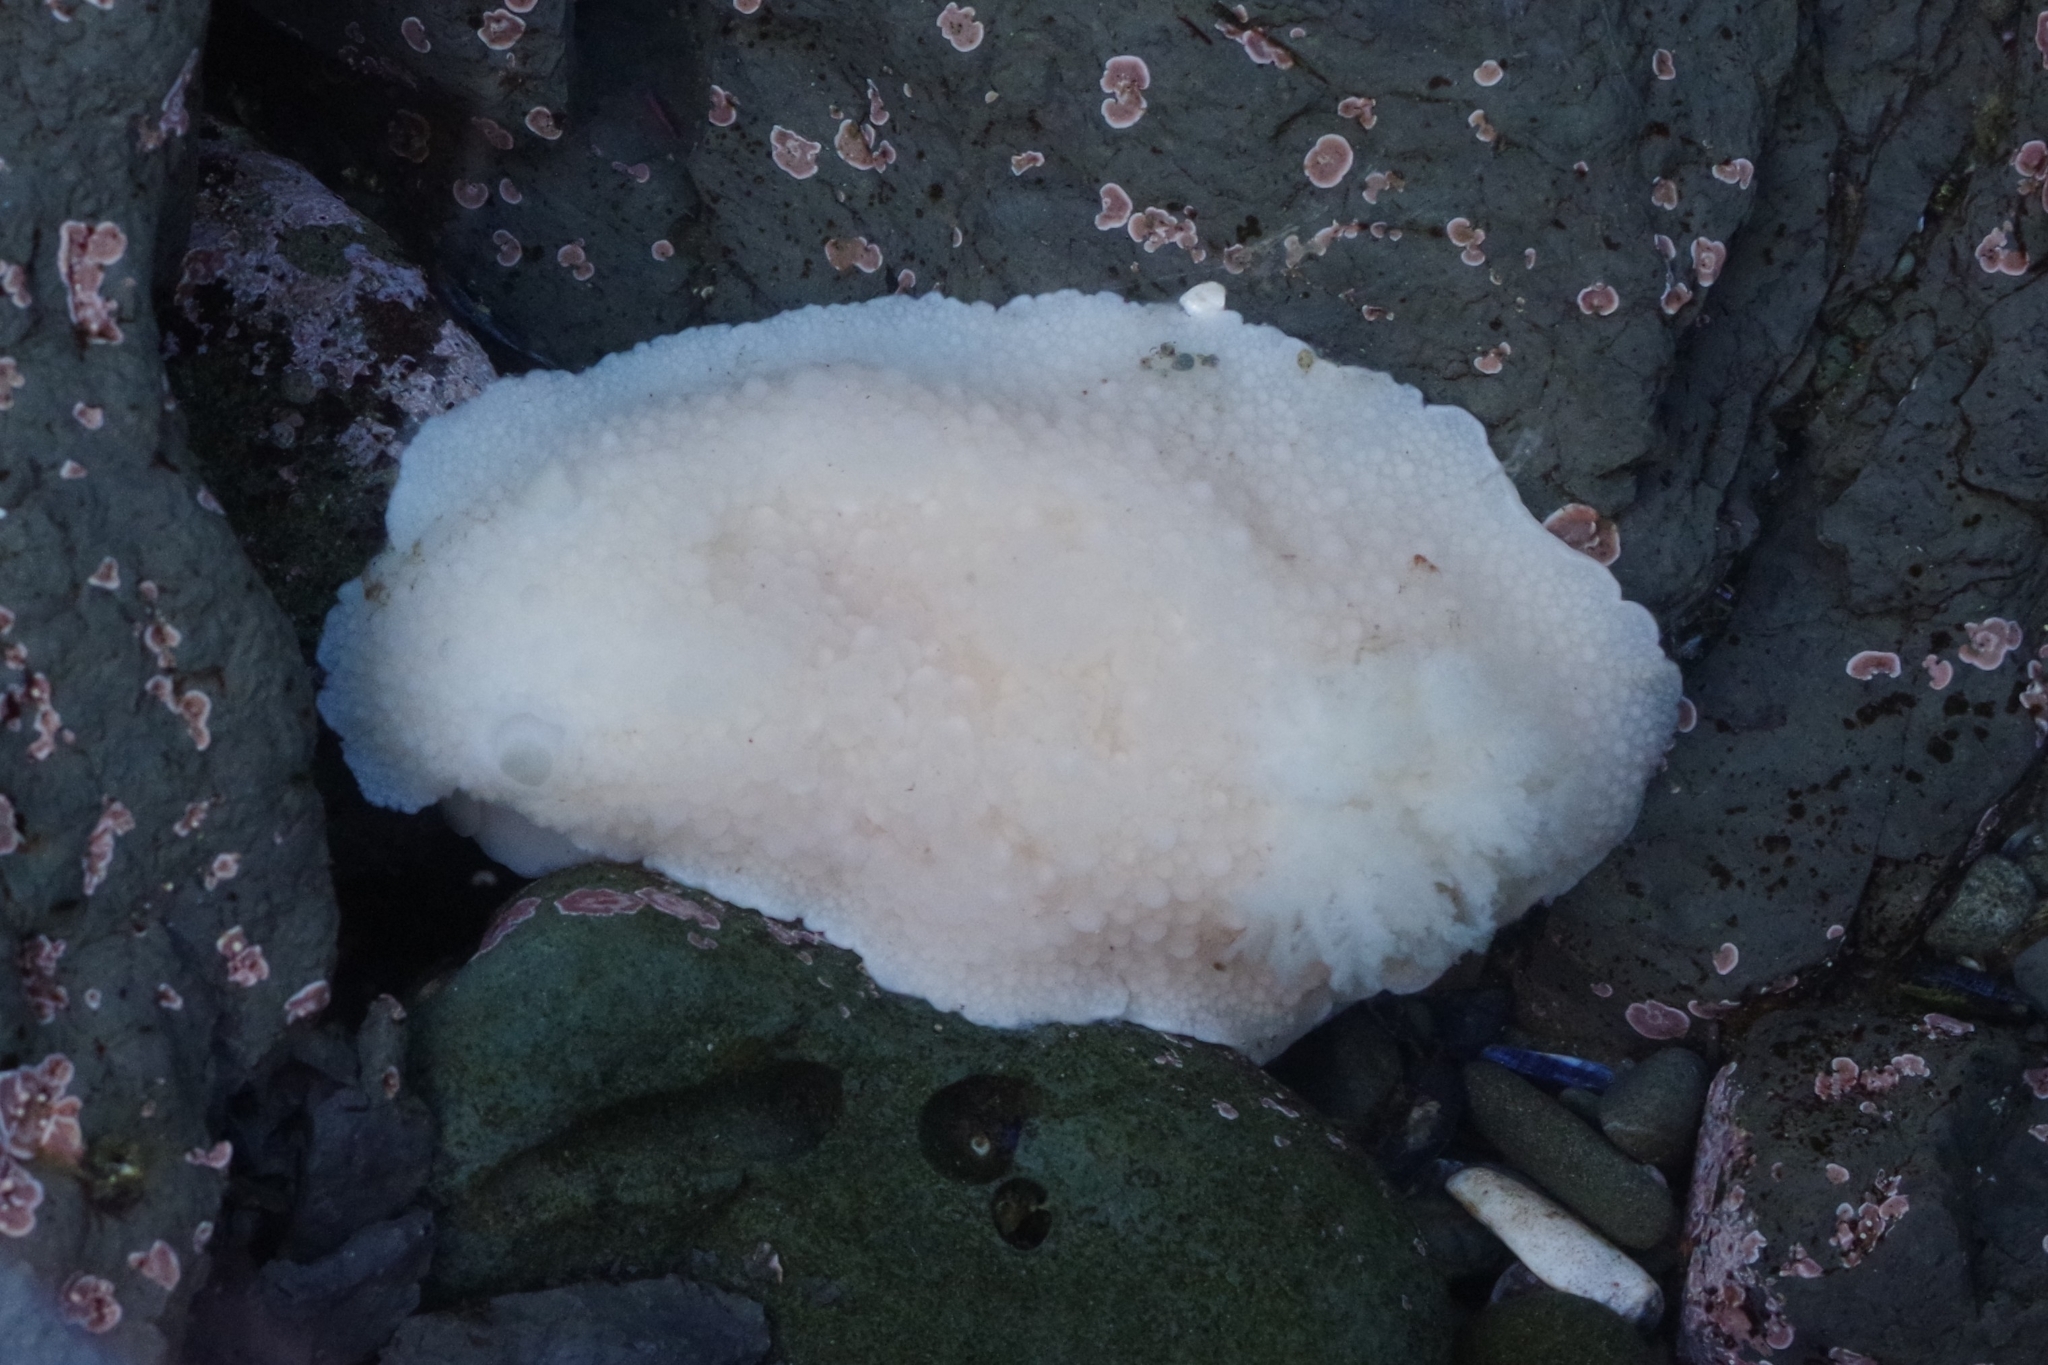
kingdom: Animalia
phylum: Mollusca
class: Gastropoda
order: Nudibranchia
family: Dorididae
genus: Doris
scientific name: Doris odhneri
